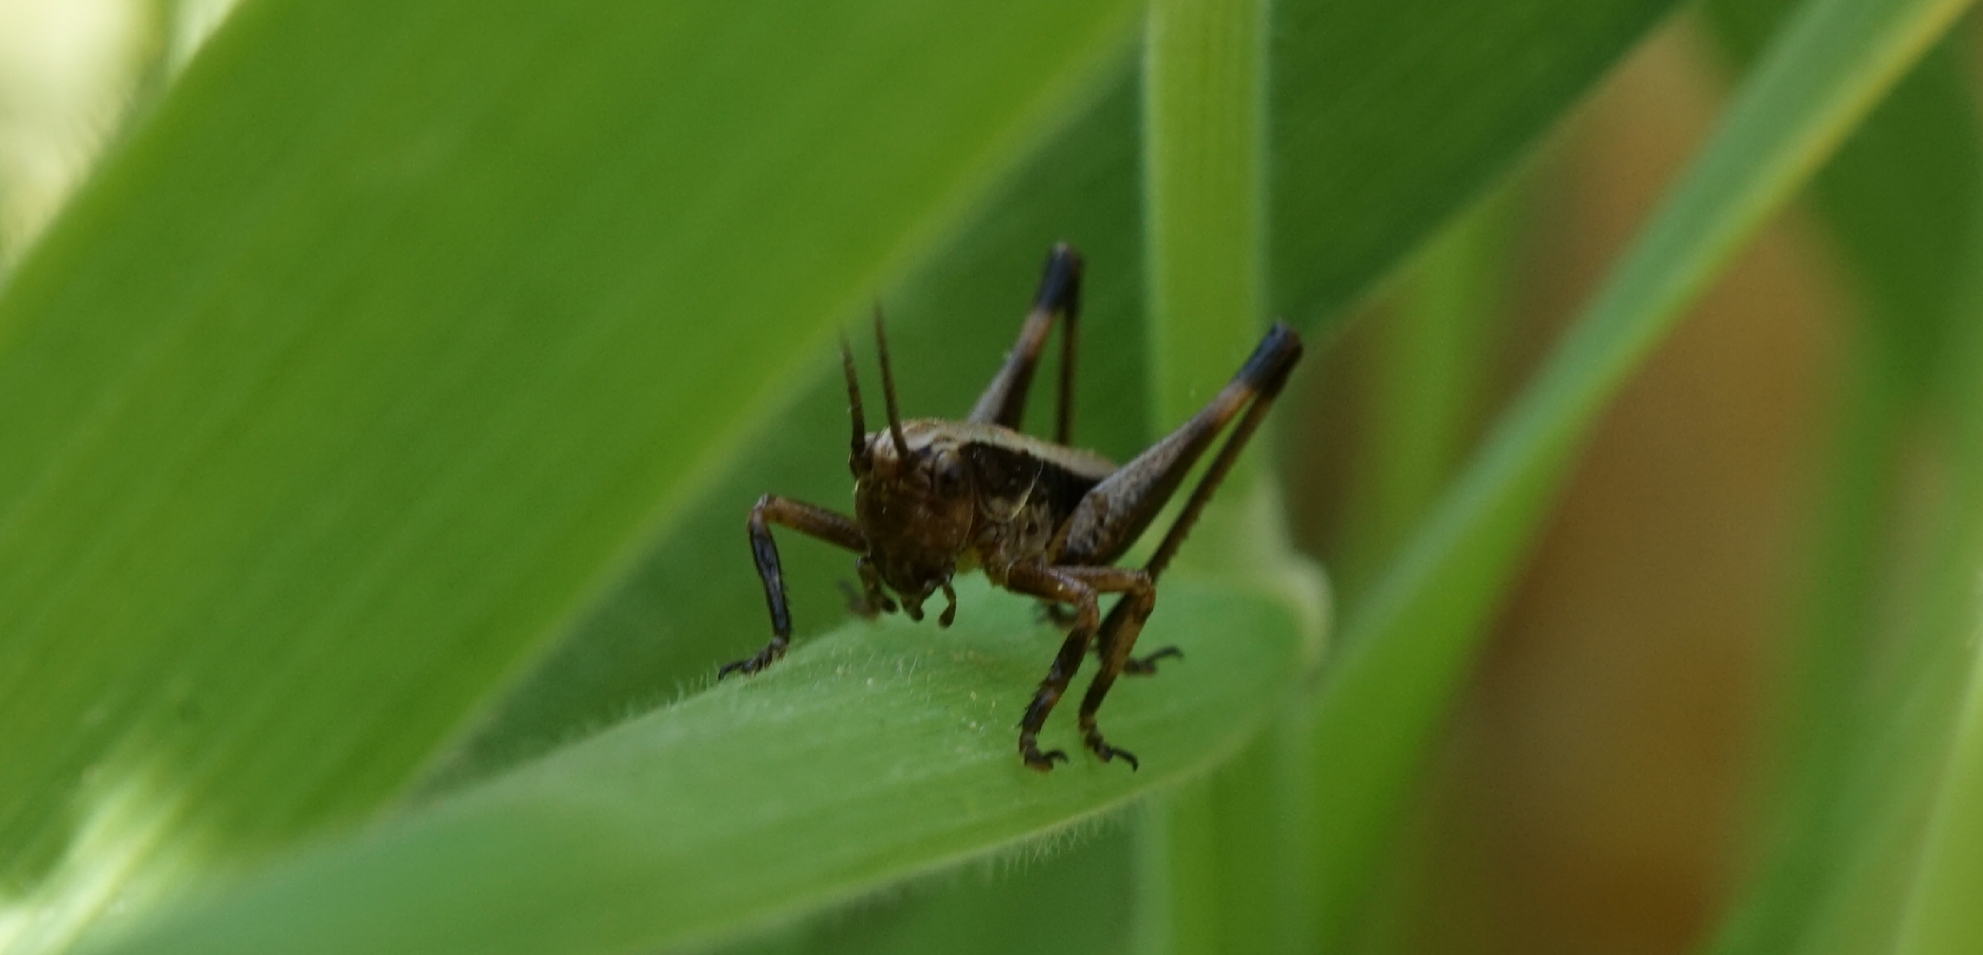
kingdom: Animalia
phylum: Arthropoda
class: Insecta
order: Orthoptera
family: Tettigoniidae
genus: Pholidoptera
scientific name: Pholidoptera griseoaptera
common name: Dark bush-cricket
